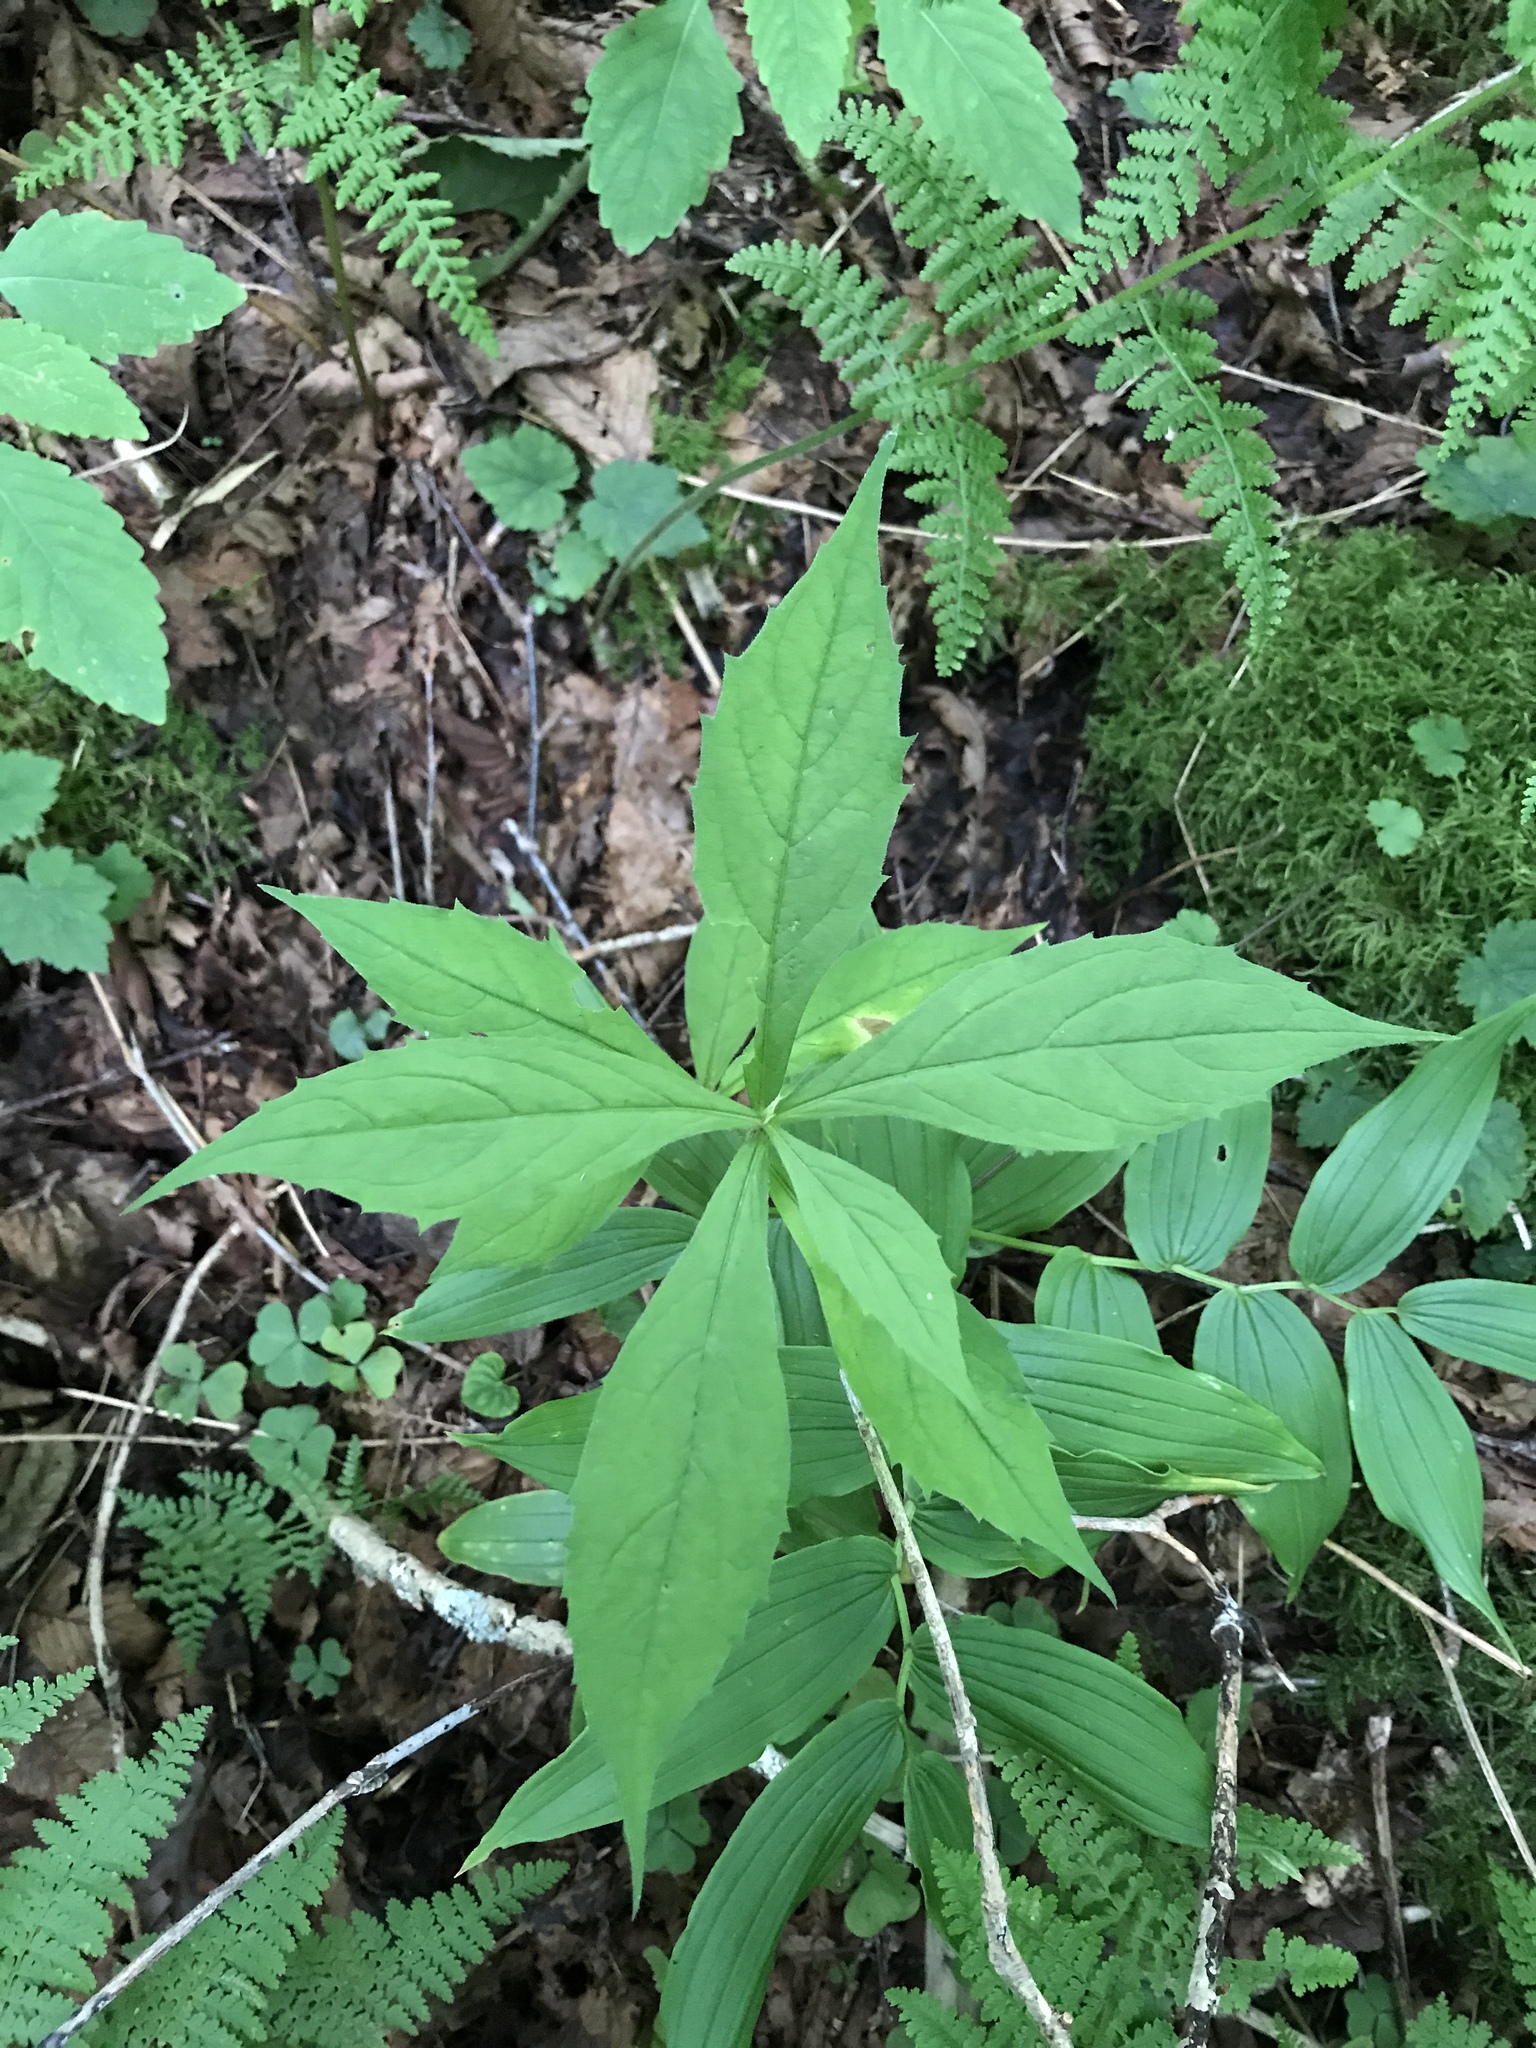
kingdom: Plantae
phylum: Tracheophyta
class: Magnoliopsida
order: Asterales
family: Asteraceae
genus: Oclemena
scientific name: Oclemena acuminata
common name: Mountain aster
